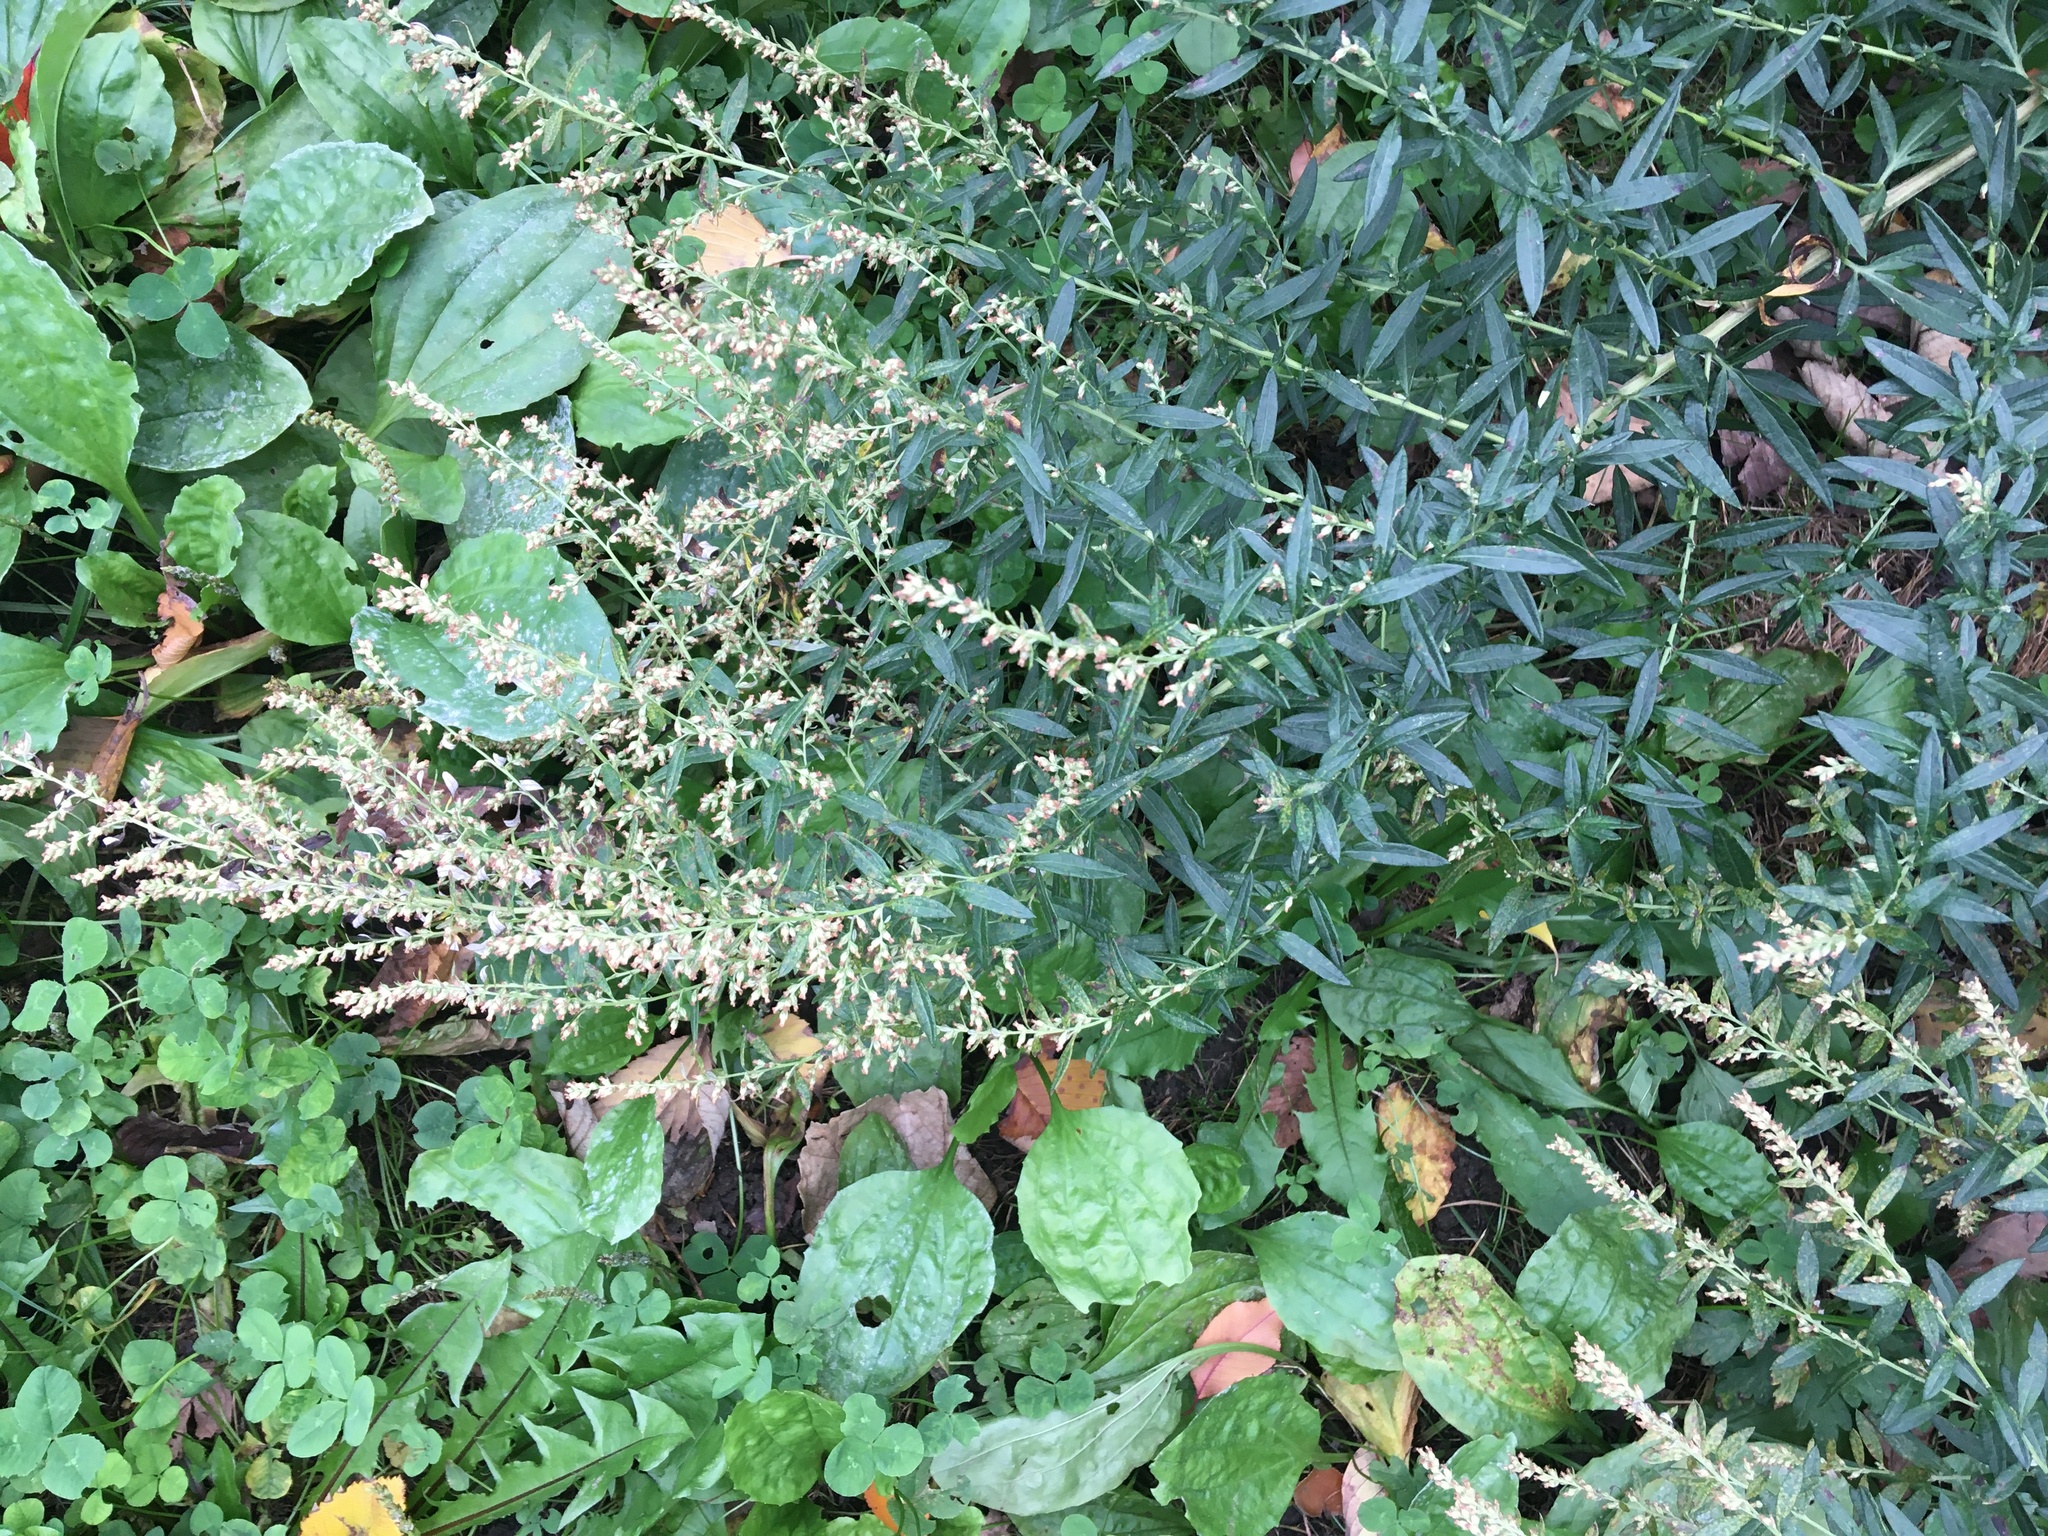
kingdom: Plantae
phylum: Tracheophyta
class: Magnoliopsida
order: Asterales
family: Asteraceae
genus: Artemisia
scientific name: Artemisia vulgaris
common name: Mugwort
